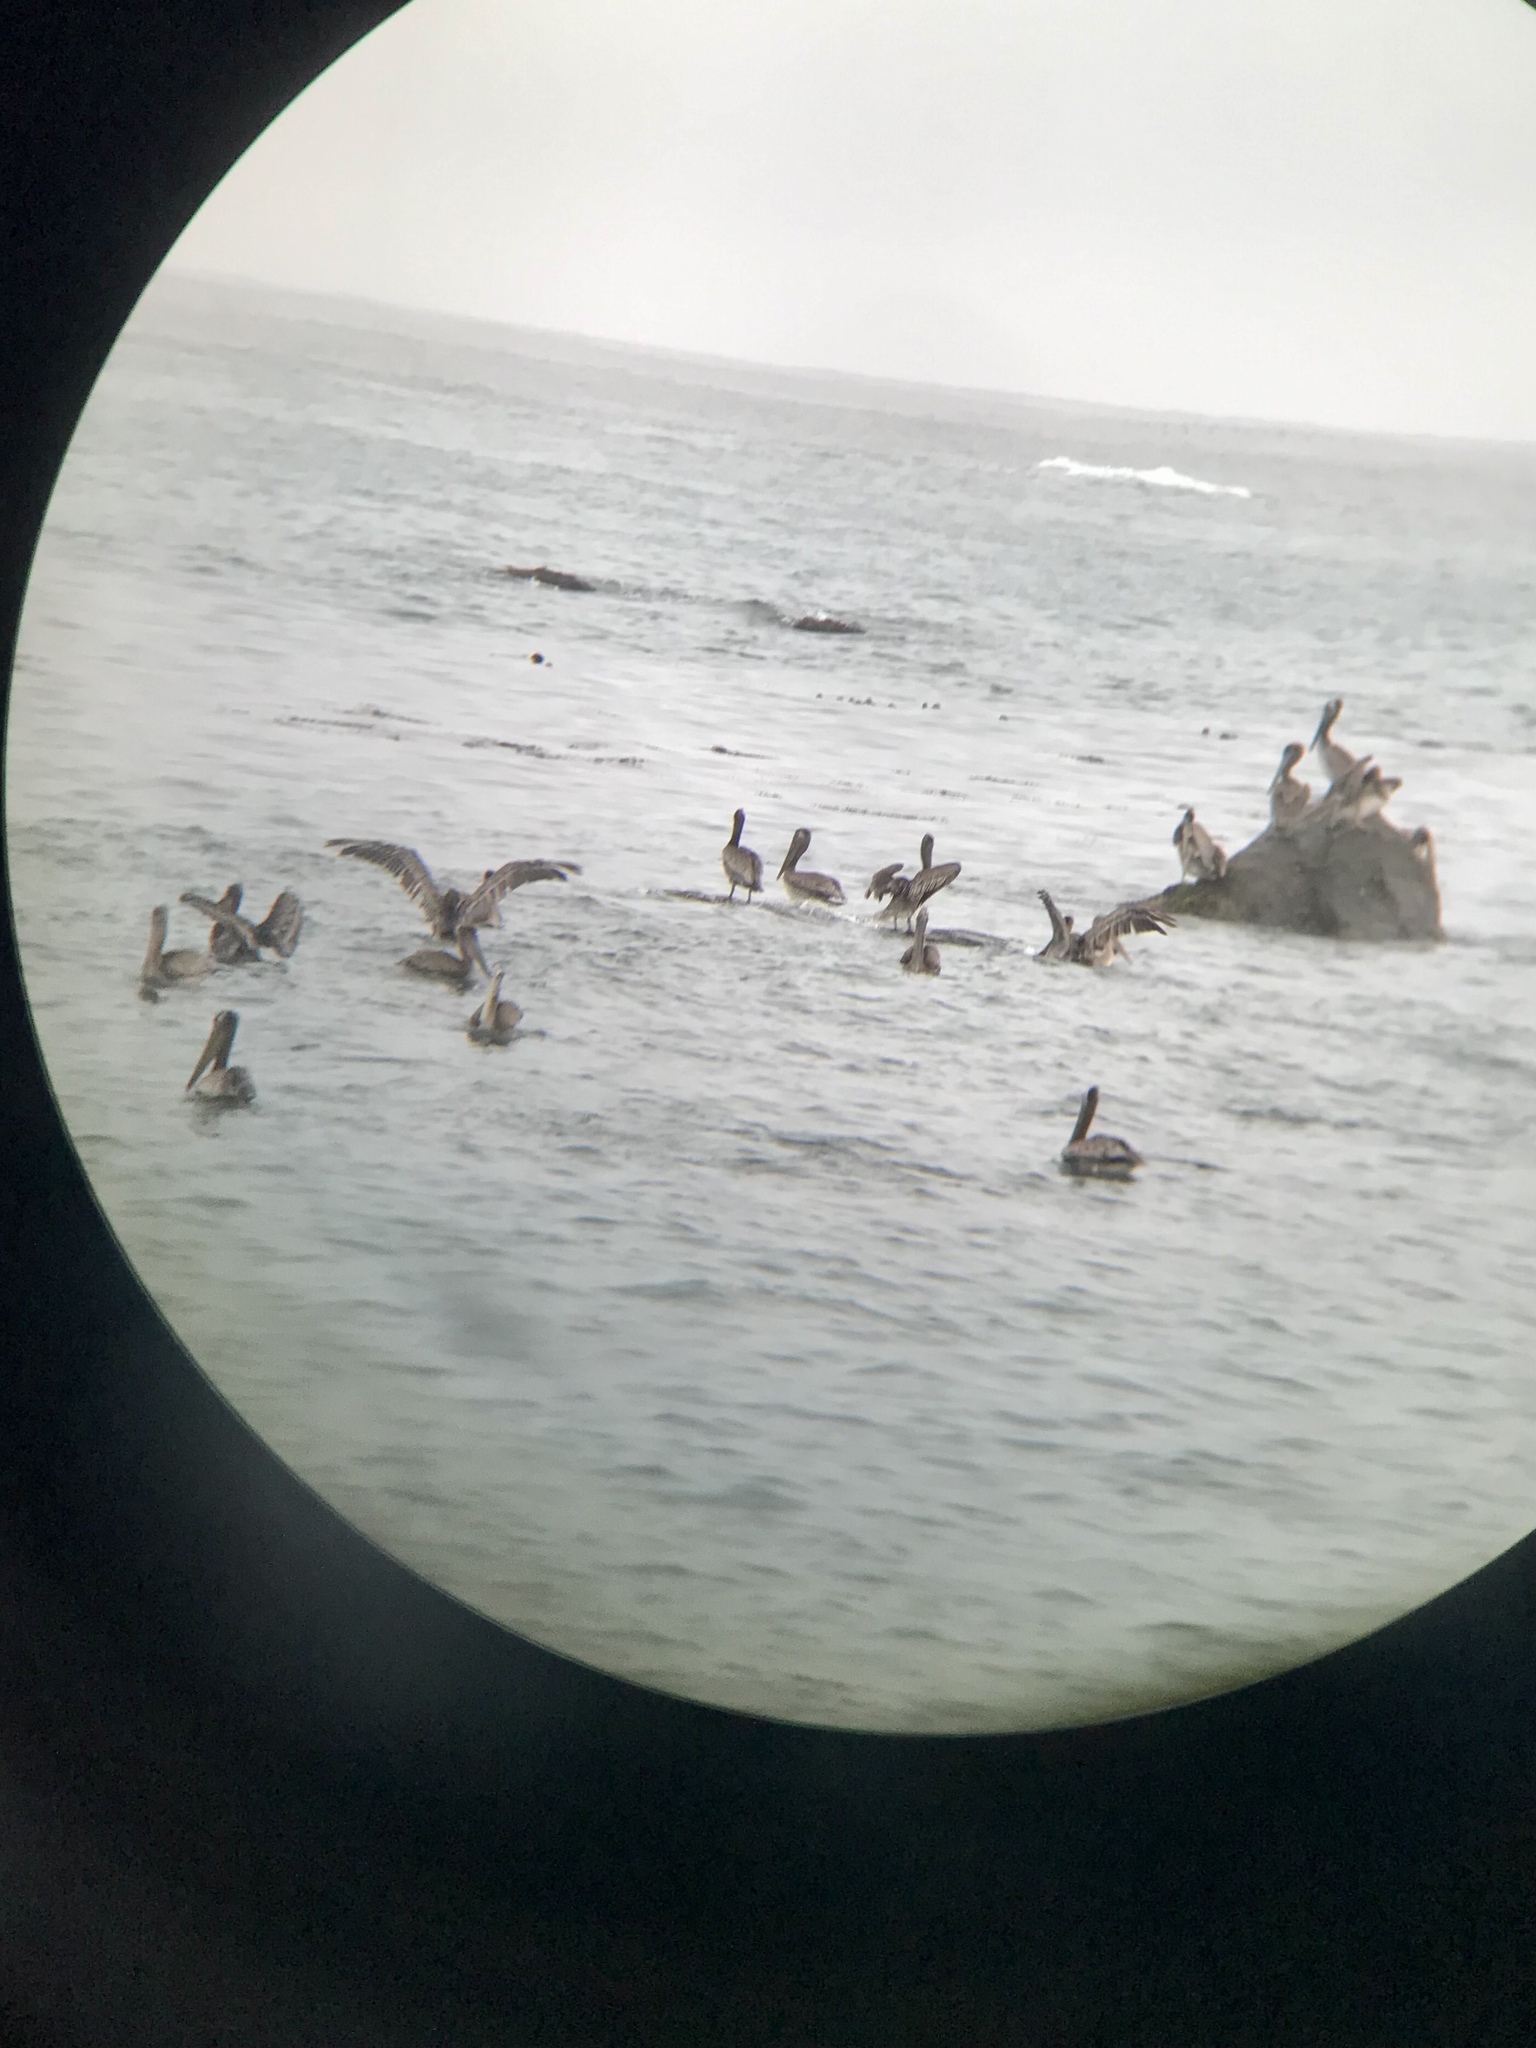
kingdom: Animalia
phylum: Chordata
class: Aves
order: Pelecaniformes
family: Pelecanidae
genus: Pelecanus
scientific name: Pelecanus occidentalis
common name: Brown pelican
